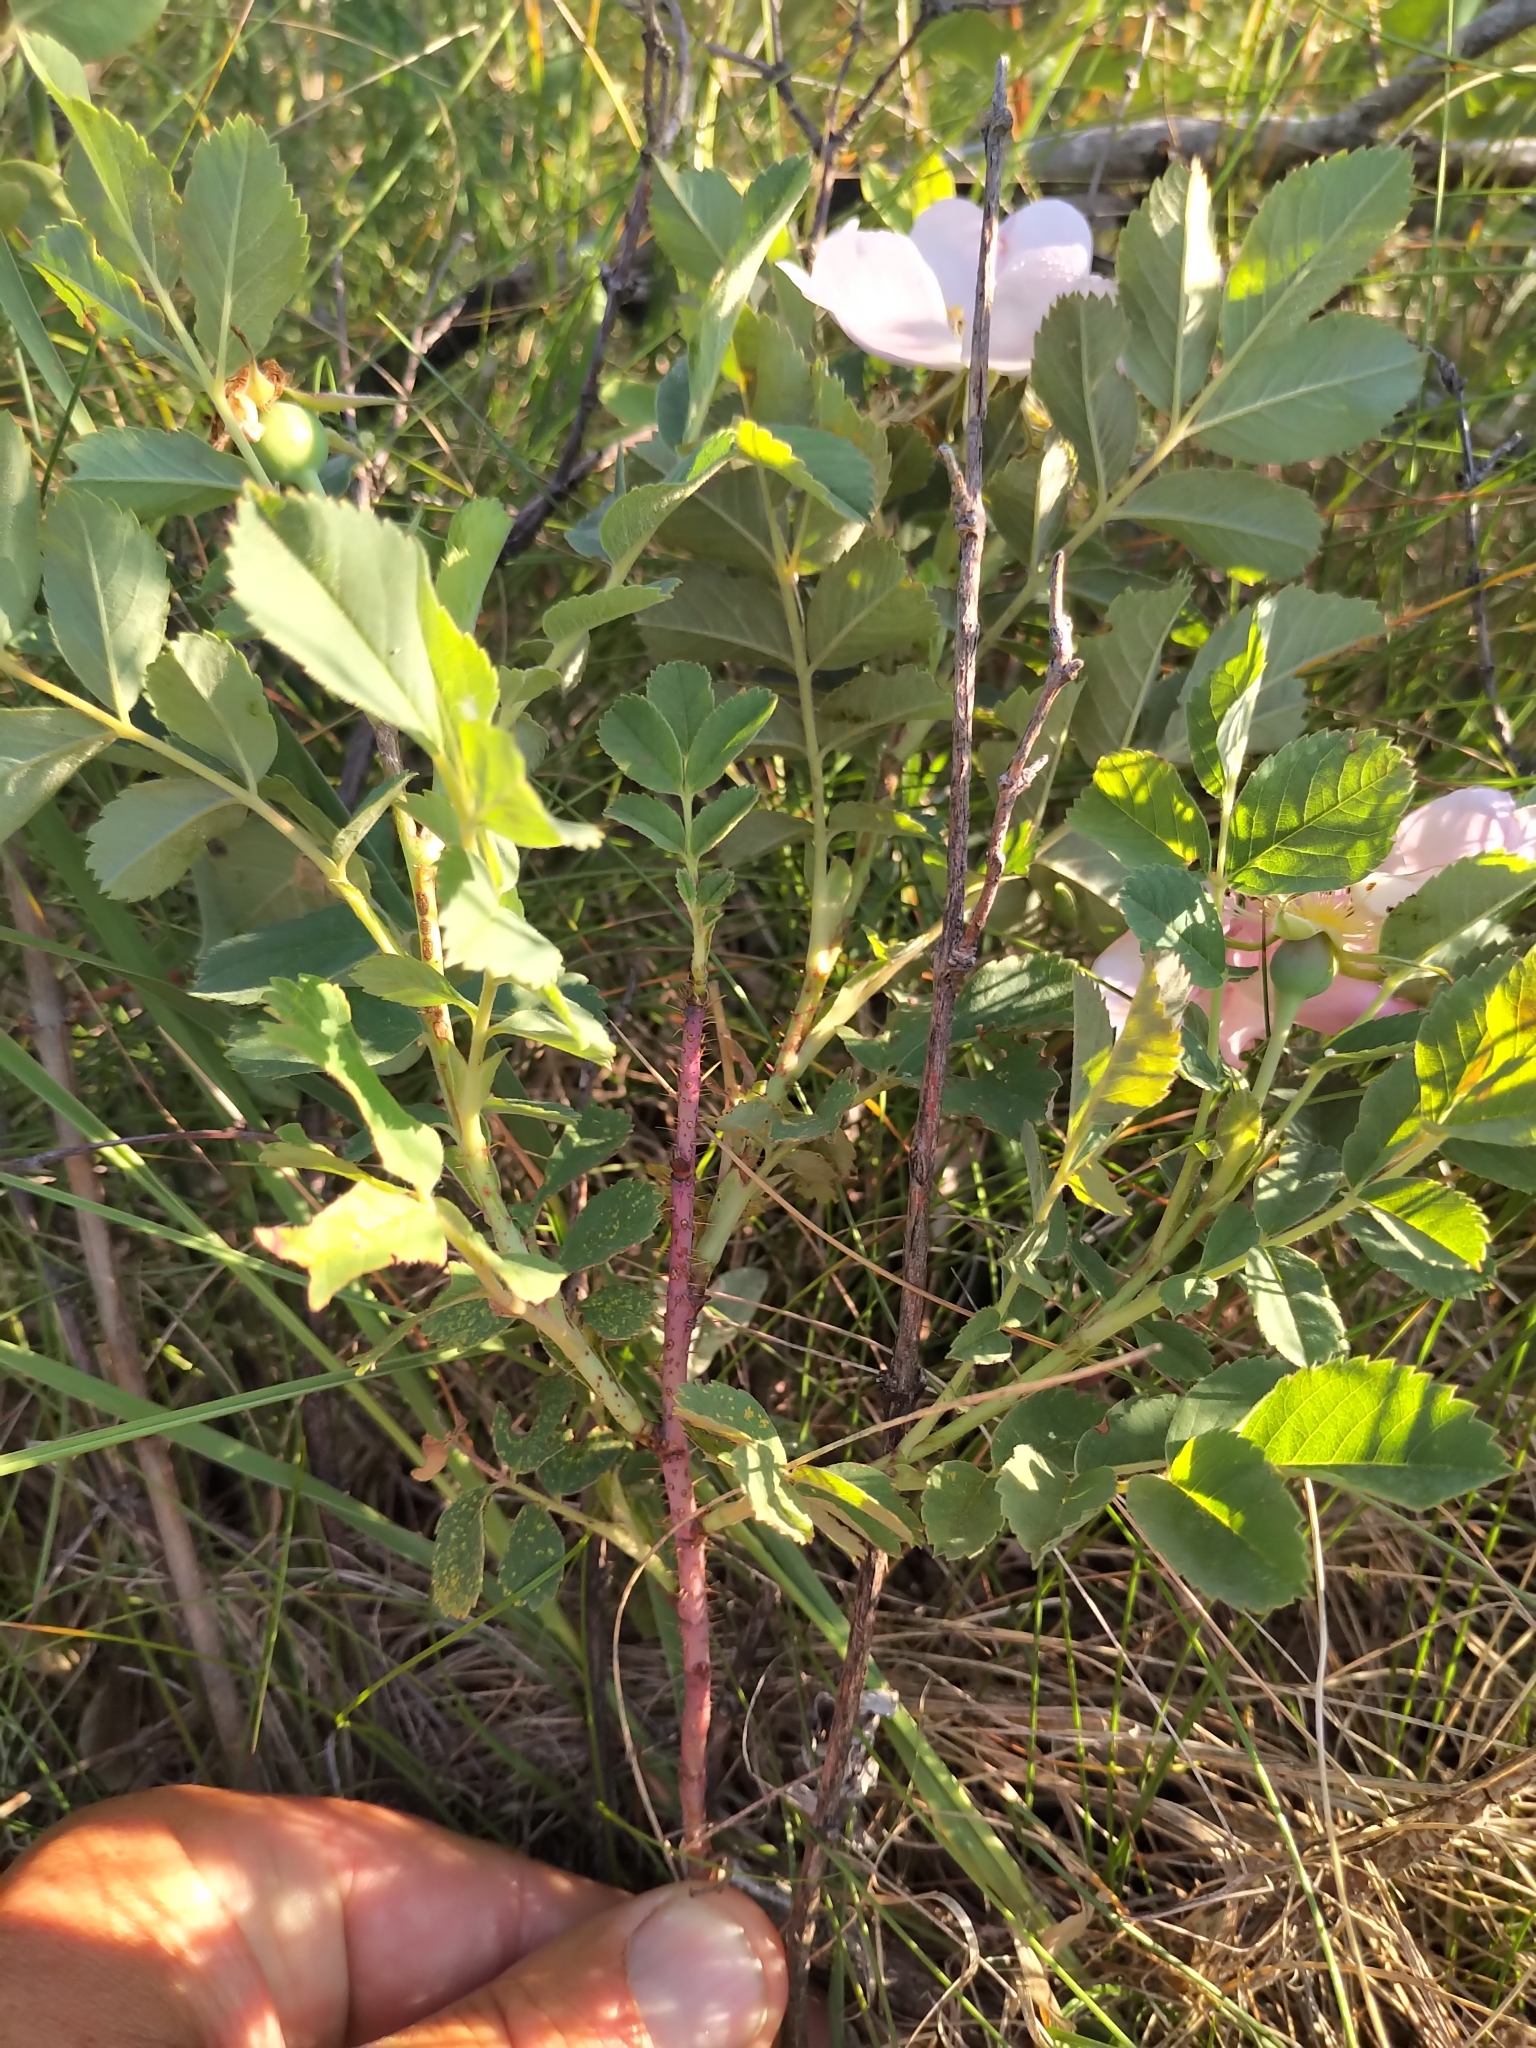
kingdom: Plantae
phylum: Tracheophyta
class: Magnoliopsida
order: Rosales
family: Rosaceae
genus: Rosa
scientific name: Rosa arkansana
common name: Prairie rose
